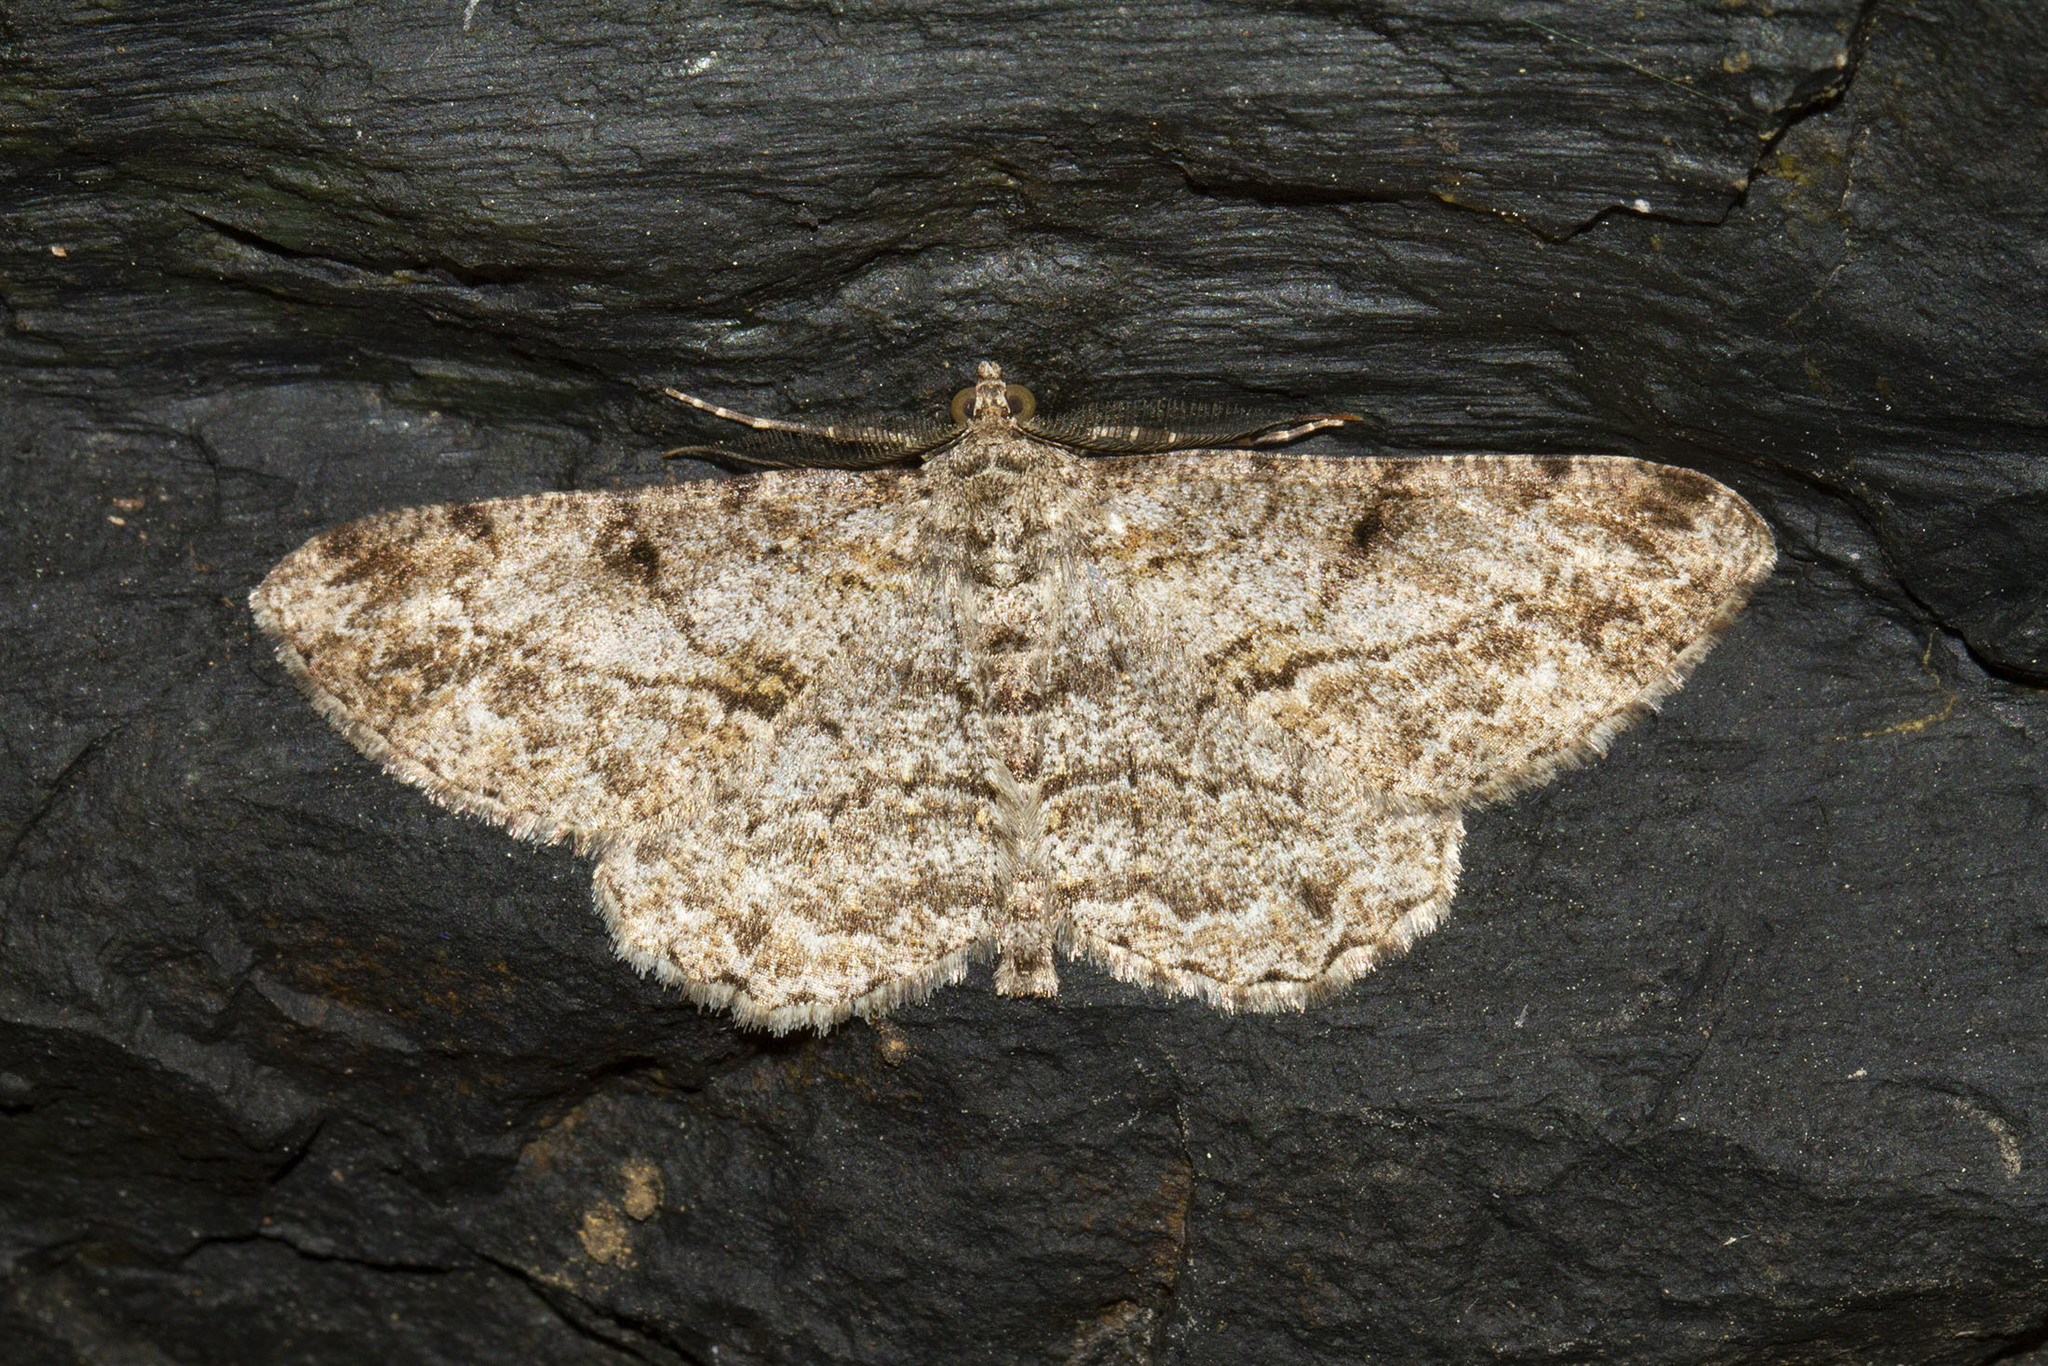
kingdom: Animalia
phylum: Arthropoda
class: Insecta
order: Lepidoptera
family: Geometridae
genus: Peribatodes
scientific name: Peribatodes rhomboidaria
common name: Willow beauty
